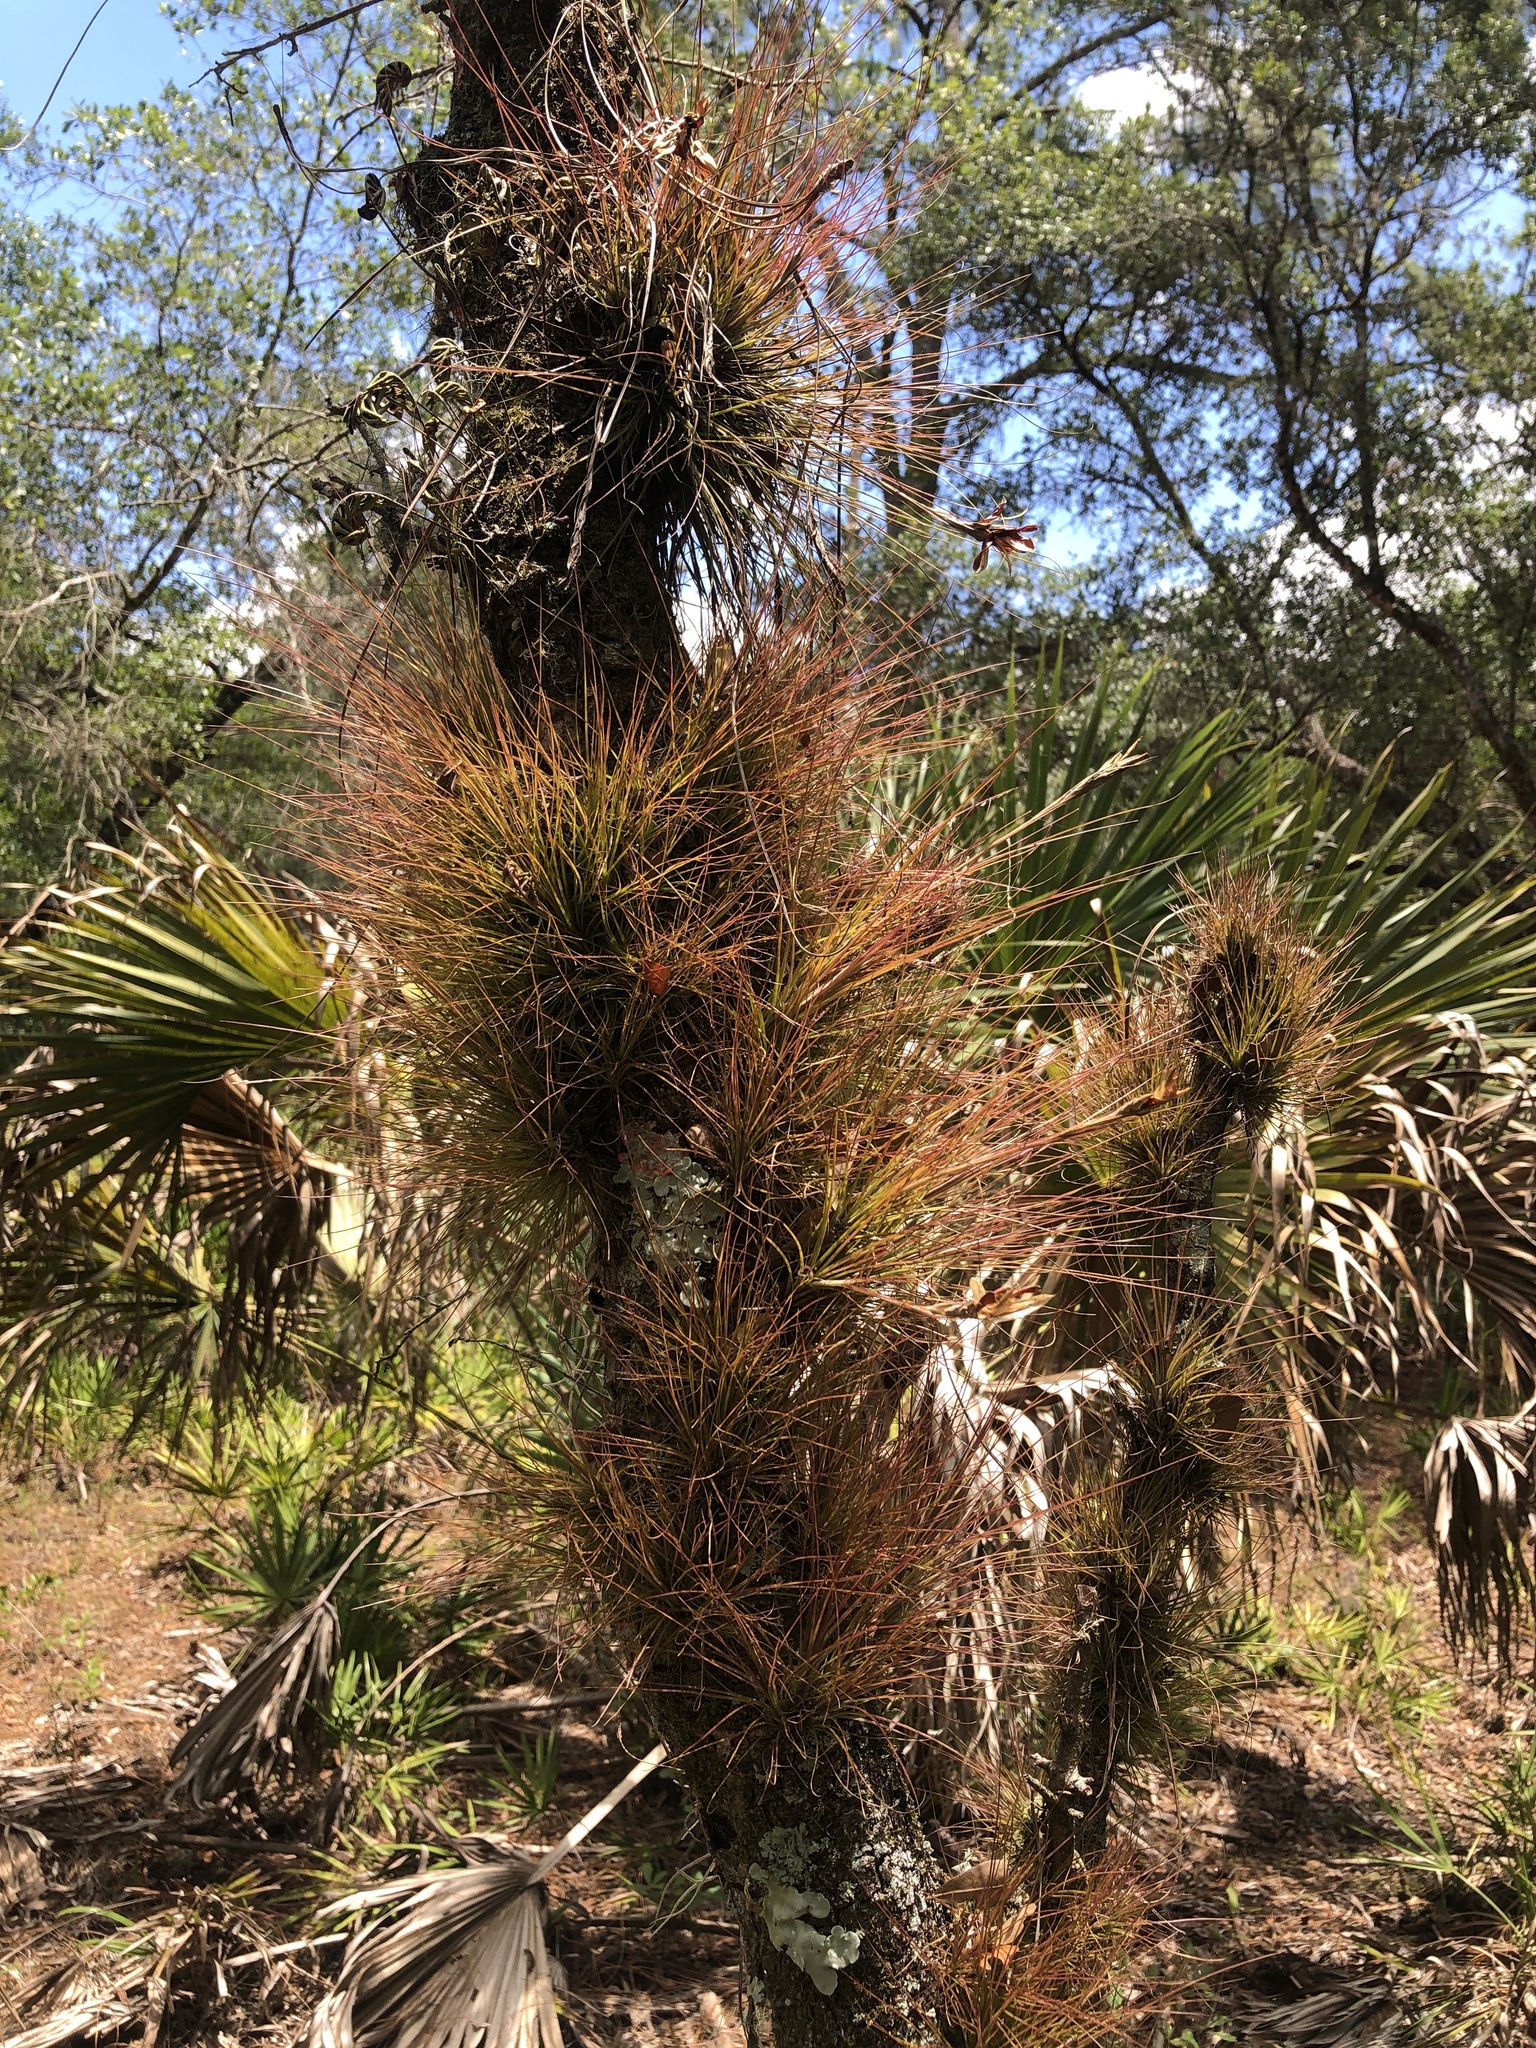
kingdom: Plantae
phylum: Tracheophyta
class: Liliopsida
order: Poales
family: Bromeliaceae
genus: Tillandsia
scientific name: Tillandsia setacea
